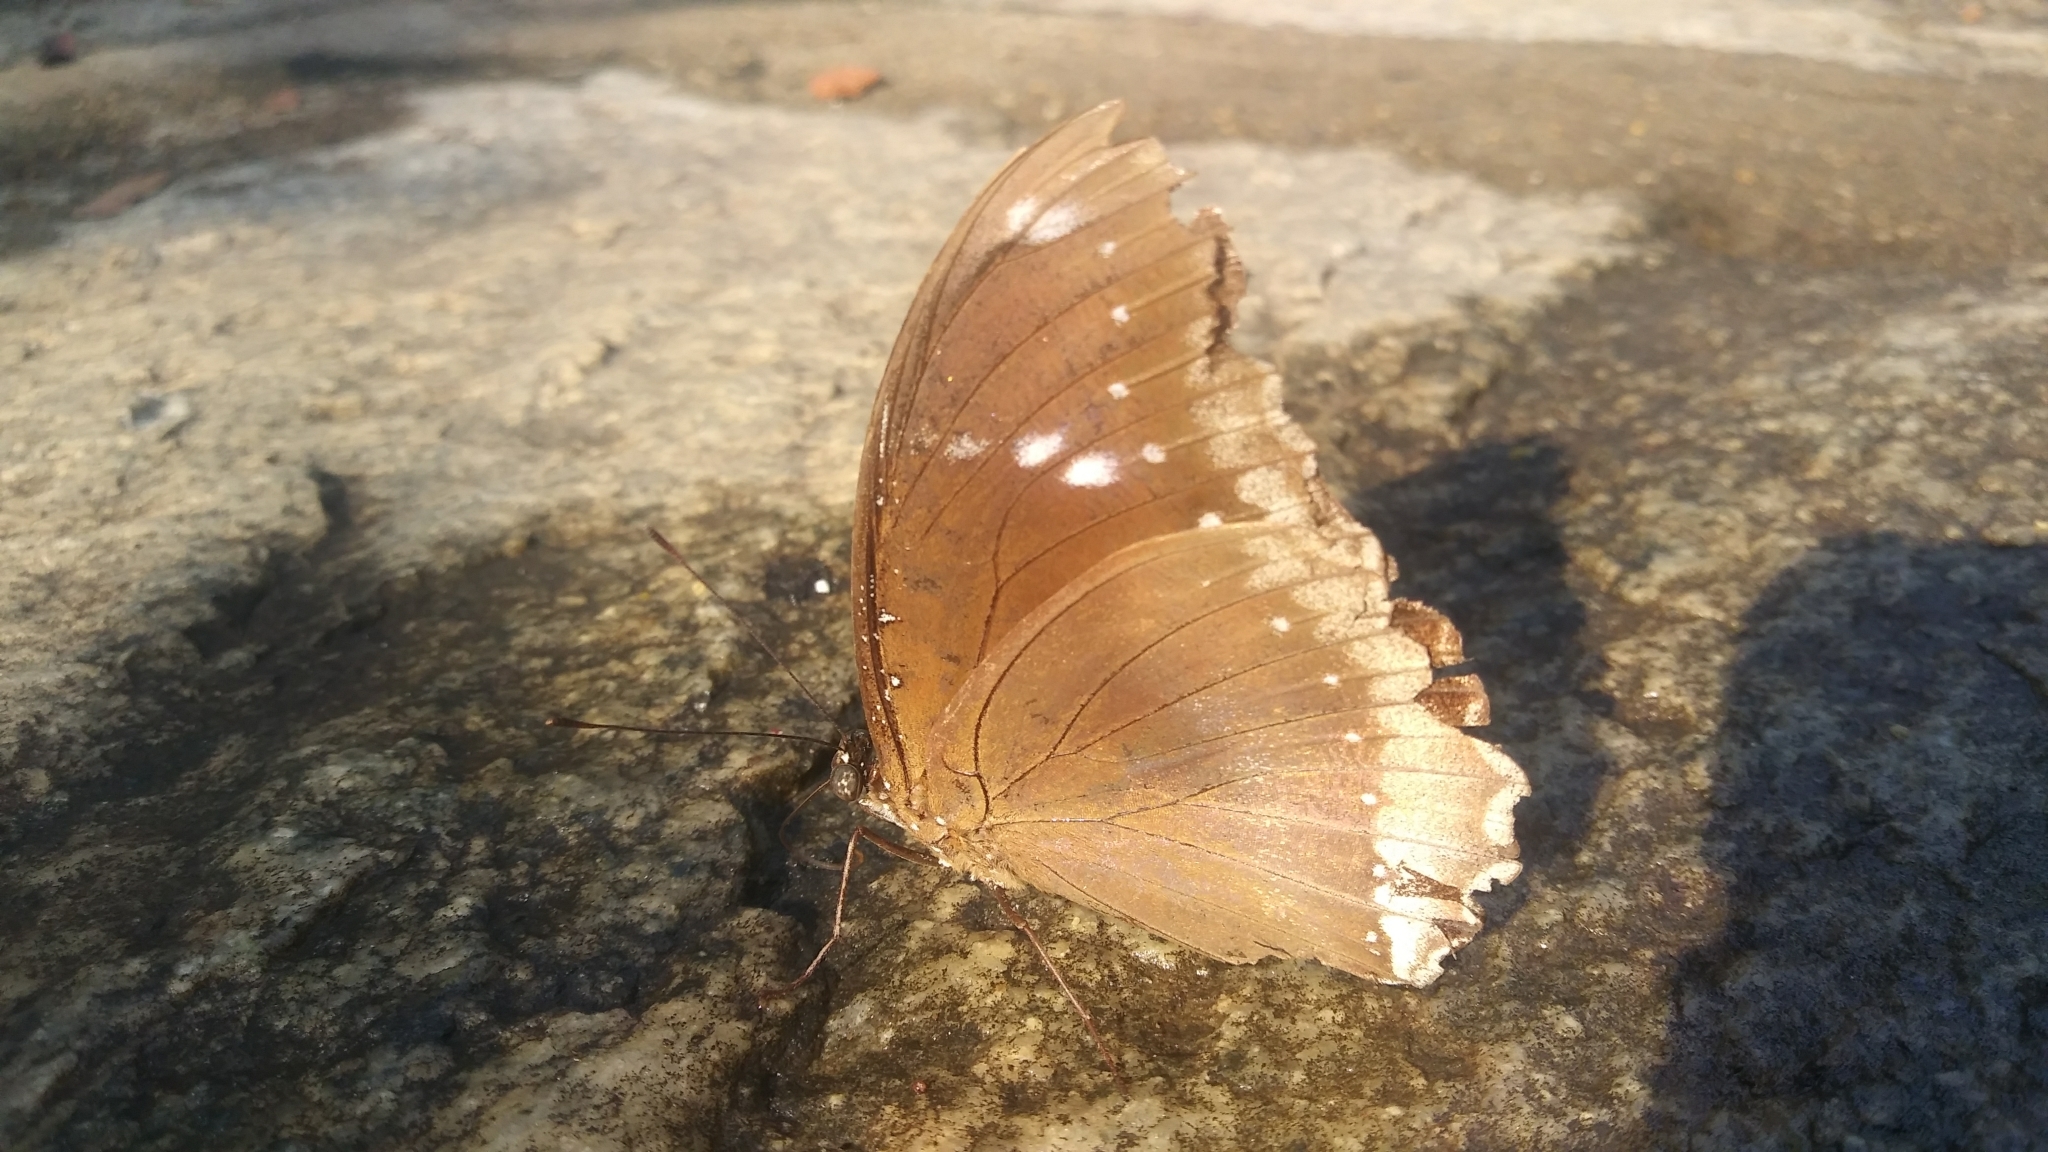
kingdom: Animalia
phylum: Arthropoda
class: Insecta
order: Lepidoptera
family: Nymphalidae
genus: Hypolimnas
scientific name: Hypolimnas bolina
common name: Great eggfly
